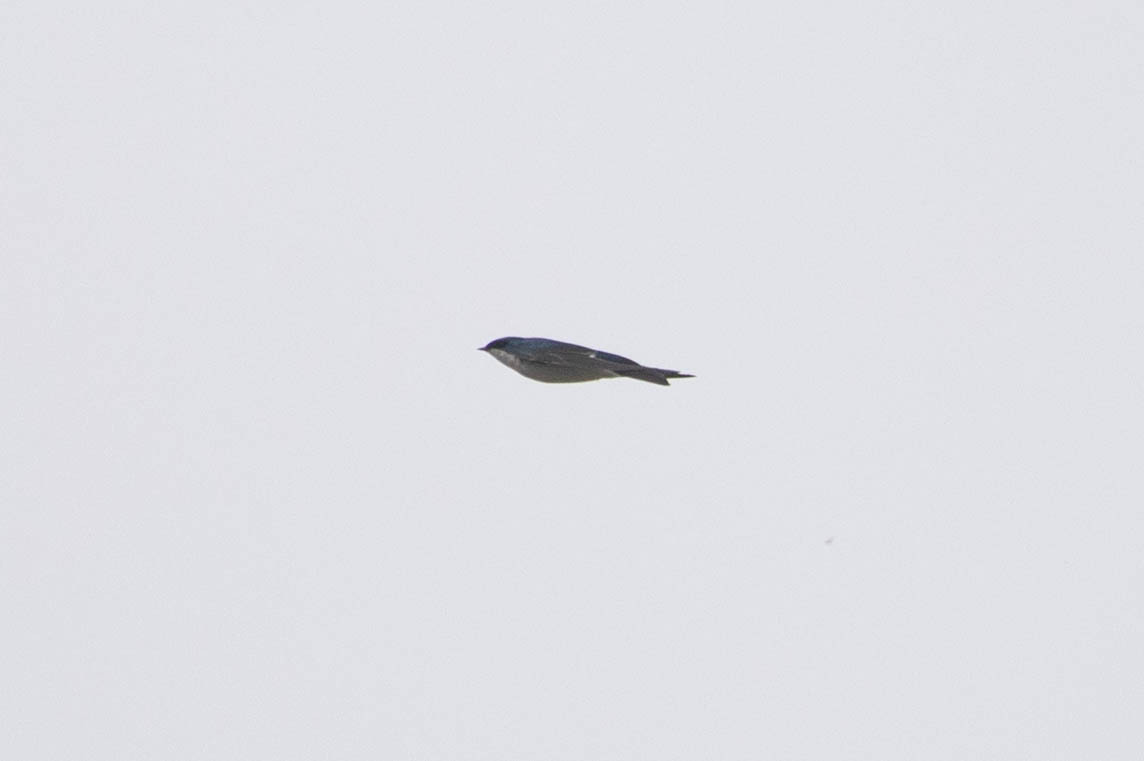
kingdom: Animalia
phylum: Chordata
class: Aves
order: Passeriformes
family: Hirundinidae
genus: Tachycineta
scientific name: Tachycineta bicolor
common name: Tree swallow
